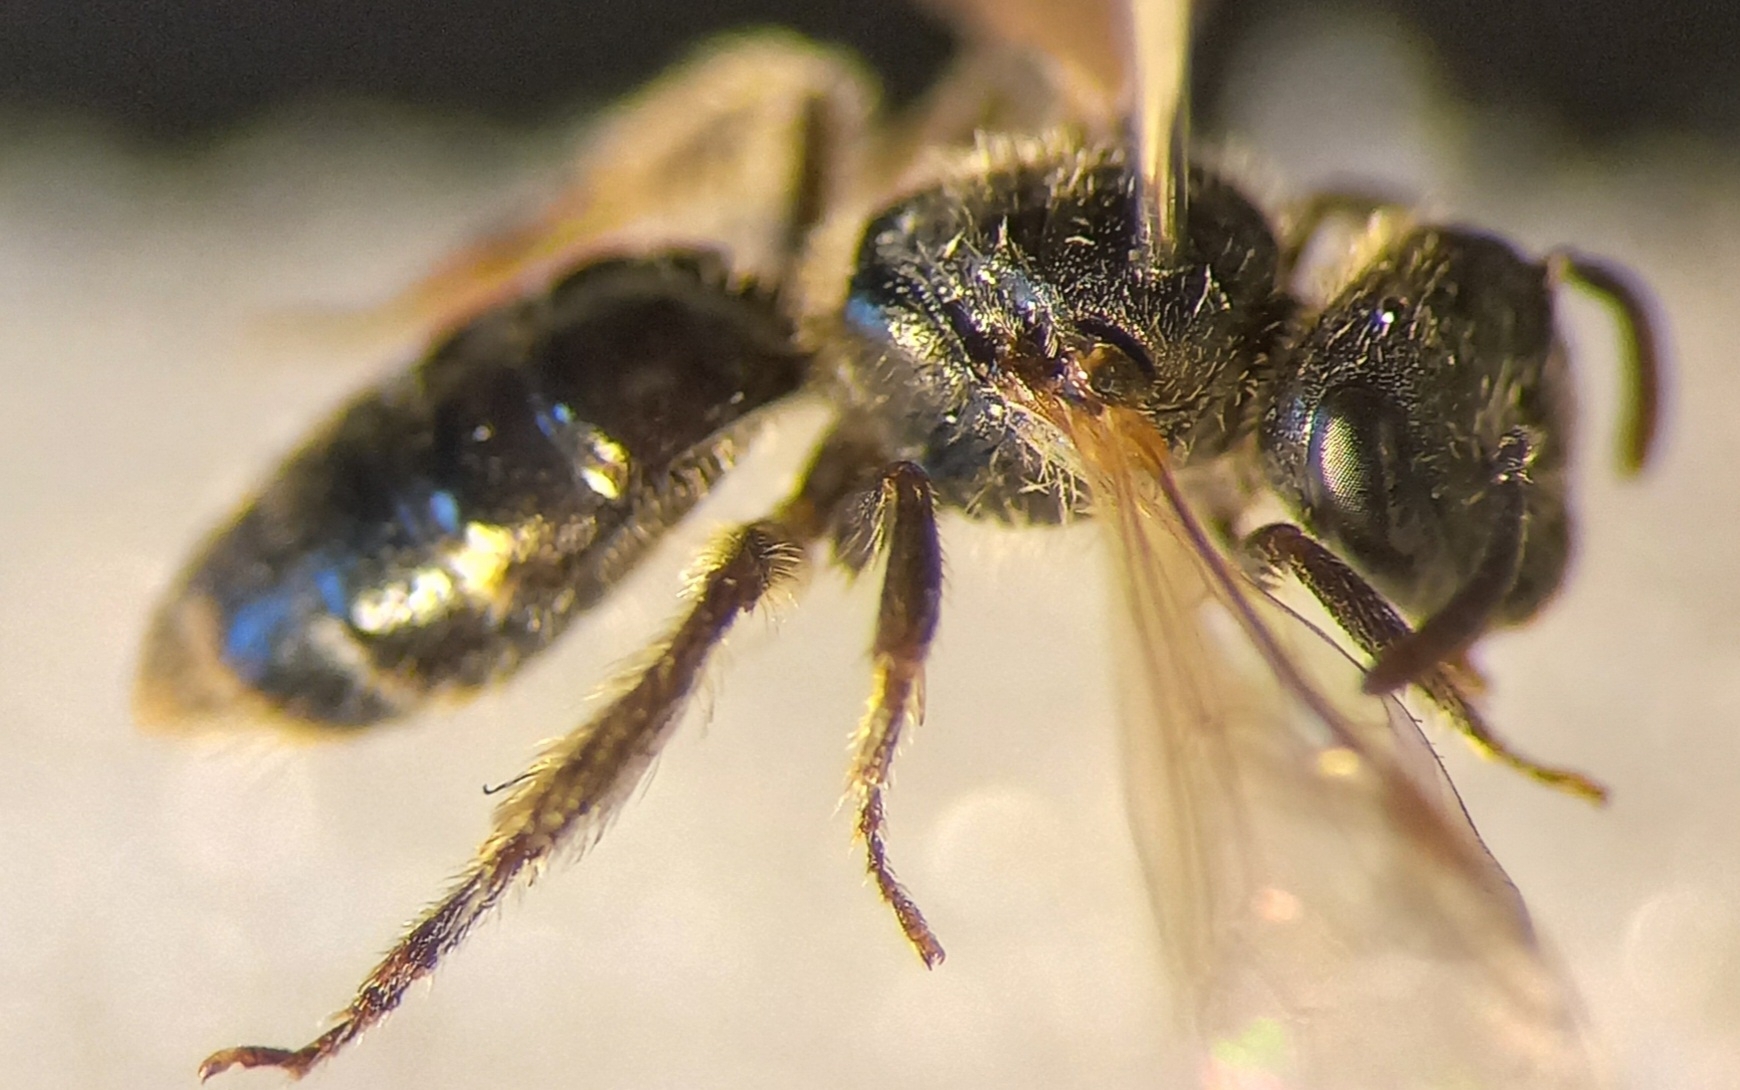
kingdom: Animalia
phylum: Arthropoda
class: Insecta
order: Hymenoptera
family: Halictidae
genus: Lasioglossum
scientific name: Lasioglossum pauxillum
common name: Lobe-spurred furrow bee
